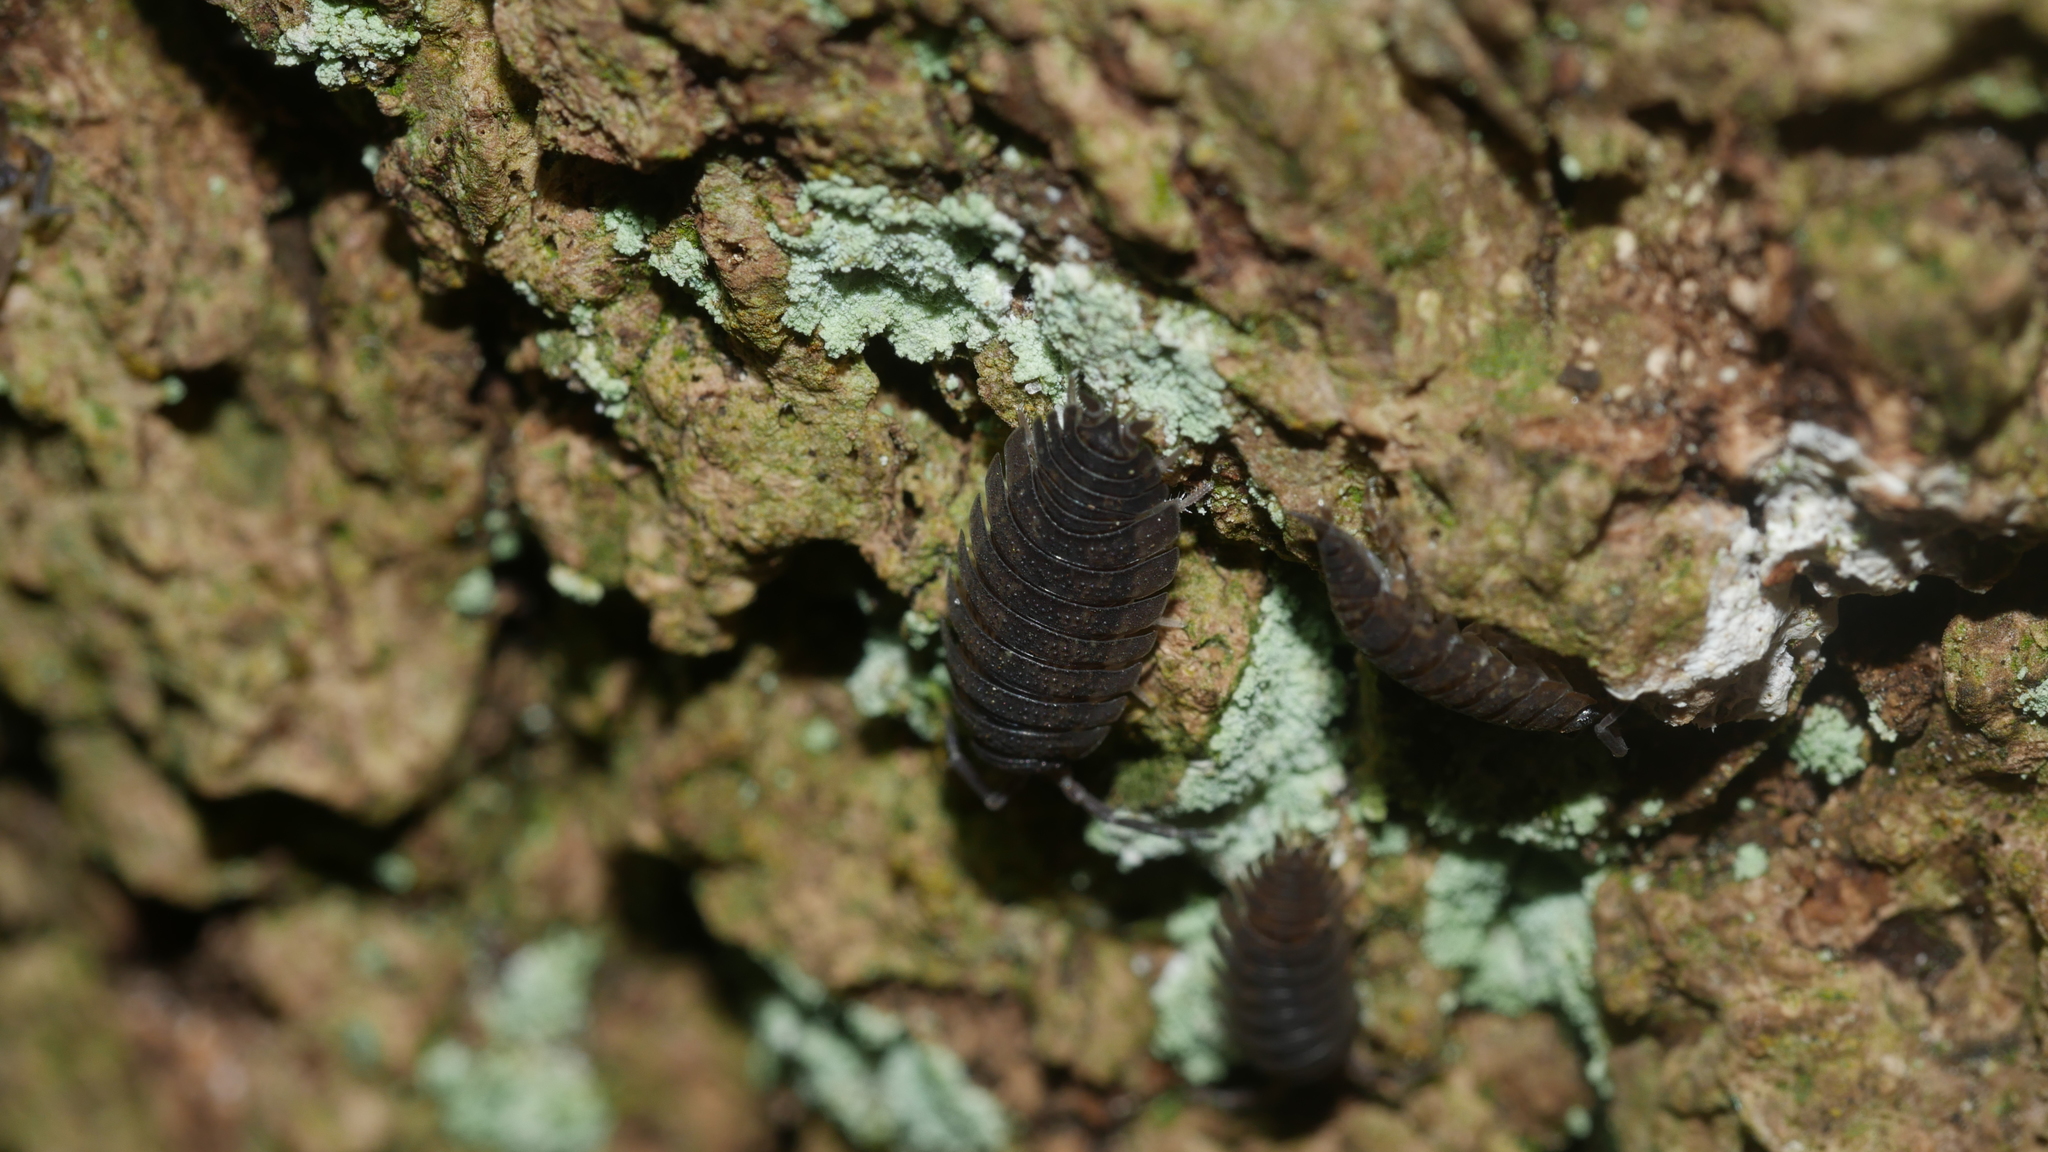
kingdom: Animalia
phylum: Arthropoda
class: Malacostraca
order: Isopoda
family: Porcellionidae
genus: Porcellio
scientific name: Porcellio scaber
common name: Common rough woodlouse
